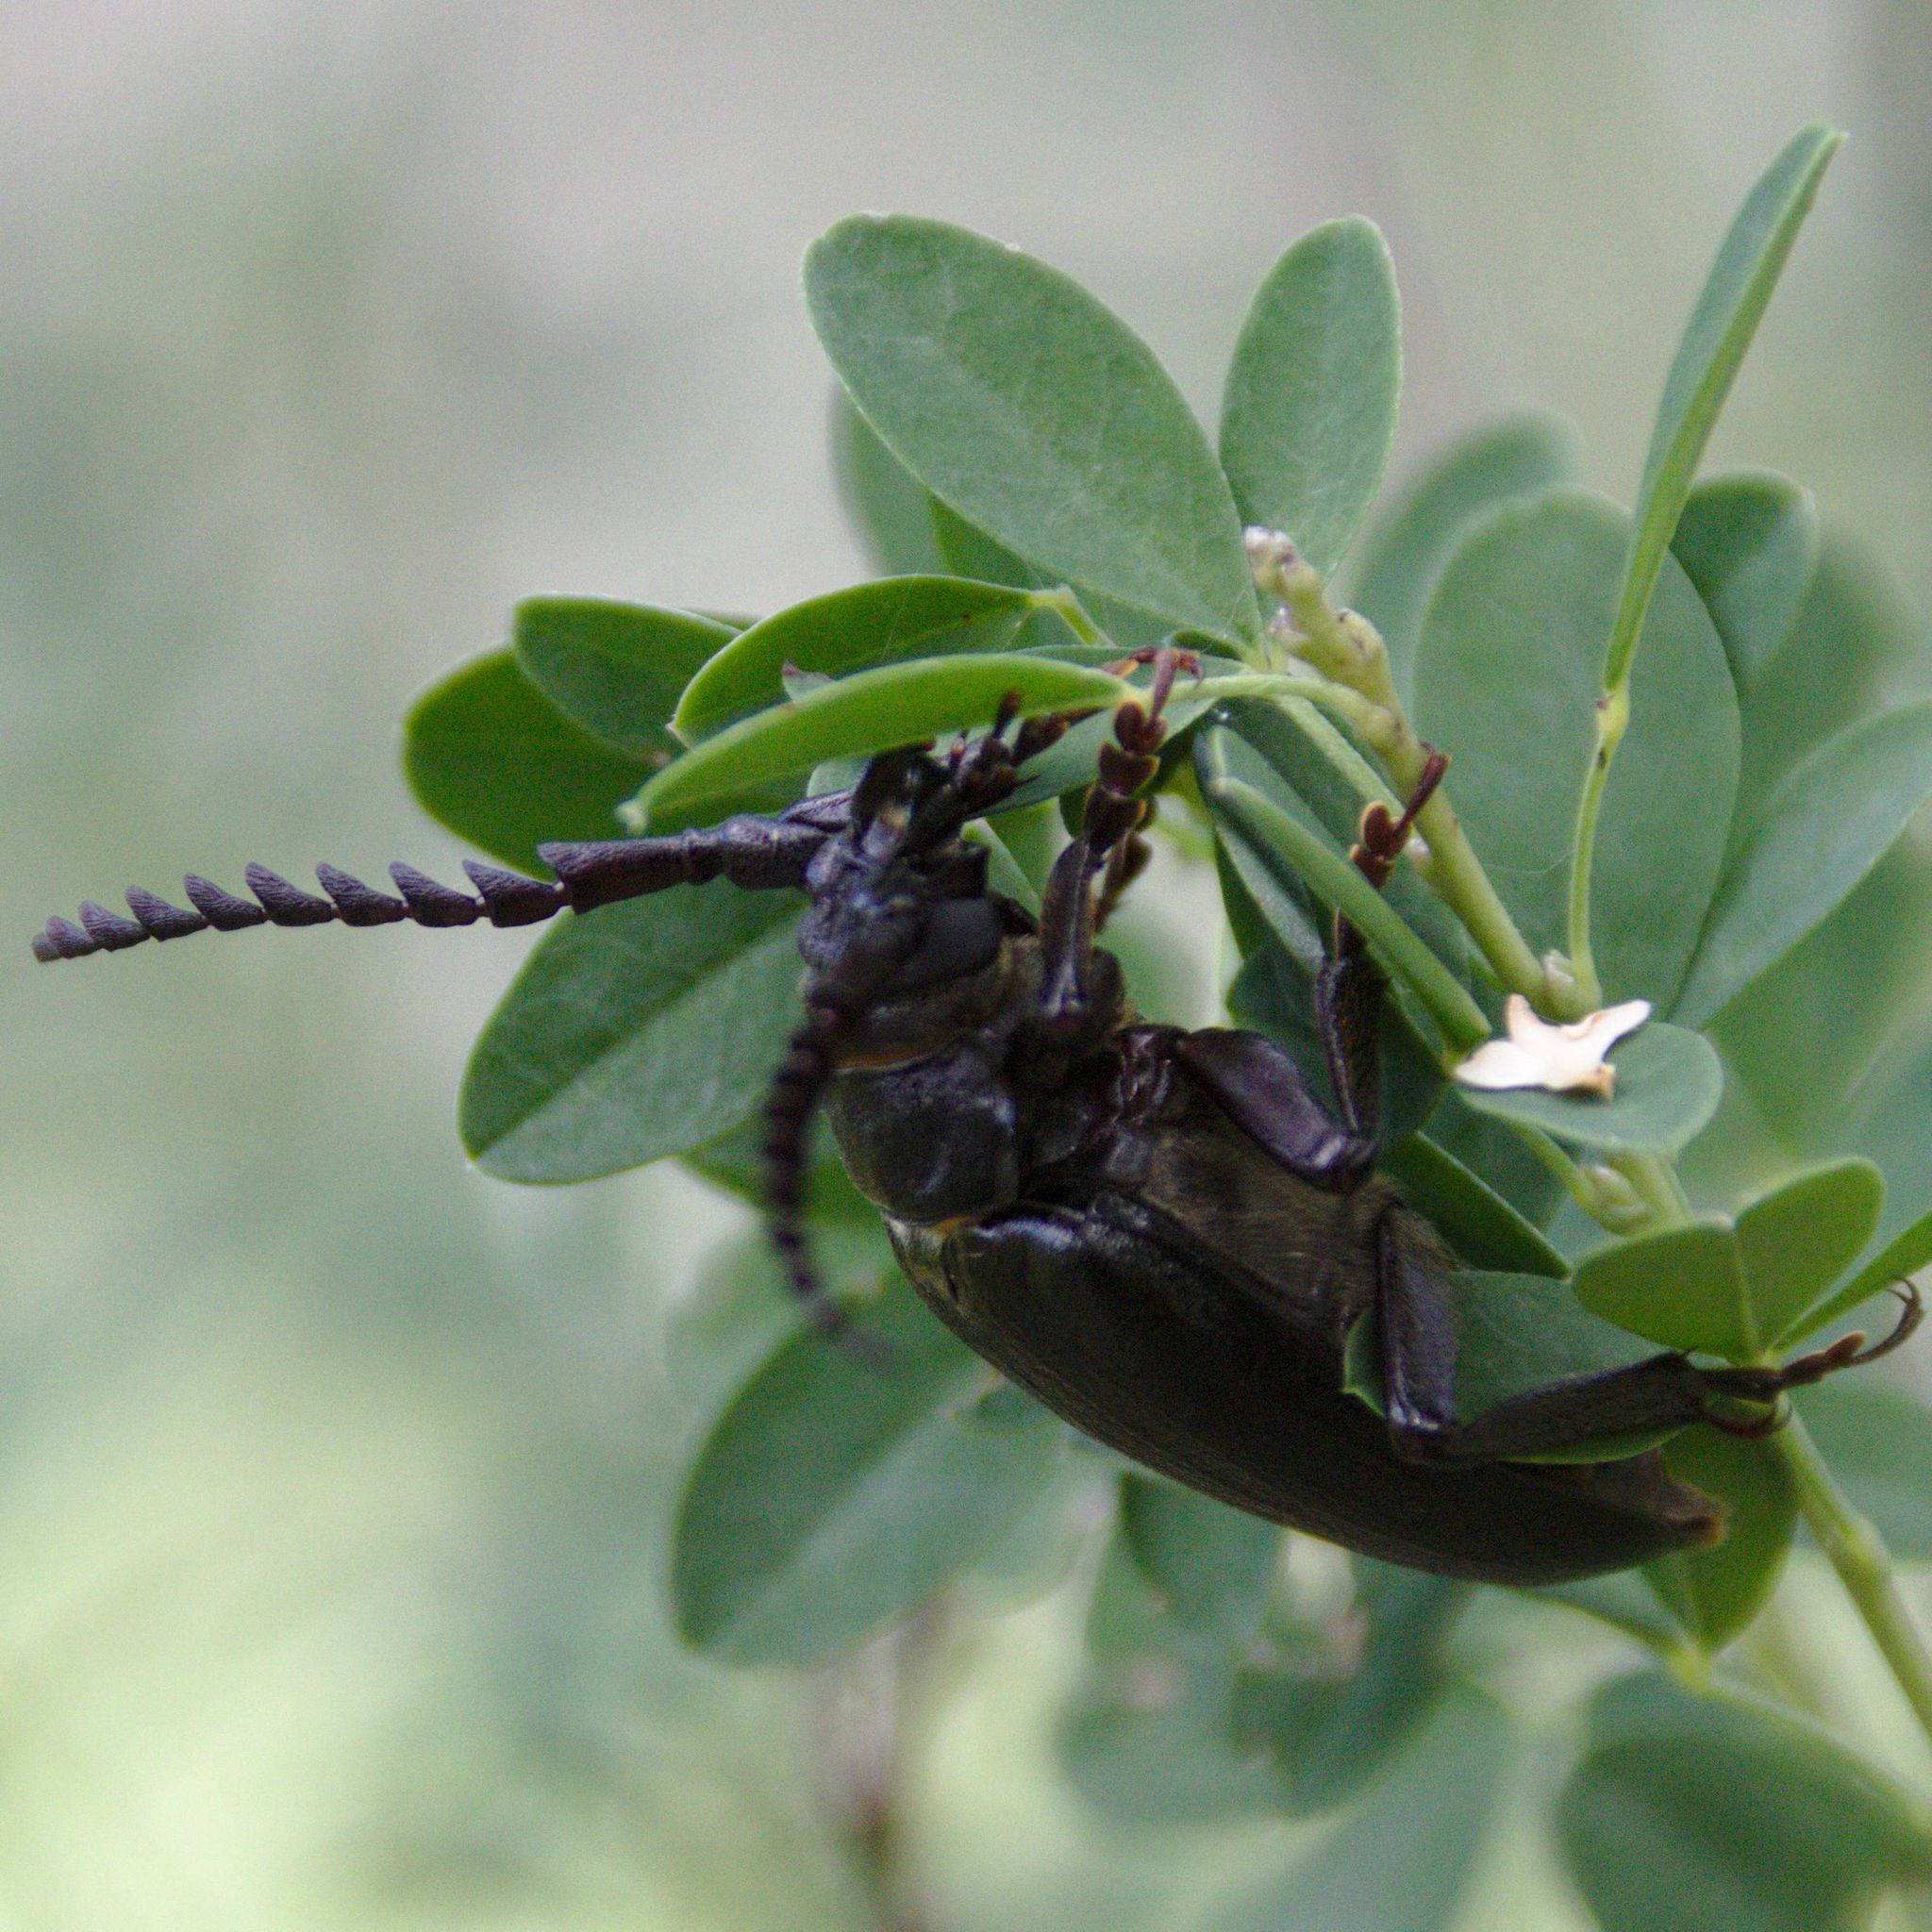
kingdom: Animalia
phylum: Arthropoda
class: Insecta
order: Coleoptera
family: Cerambycidae
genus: Prionus
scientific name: Prionus coriarius
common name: Tanner beetle
